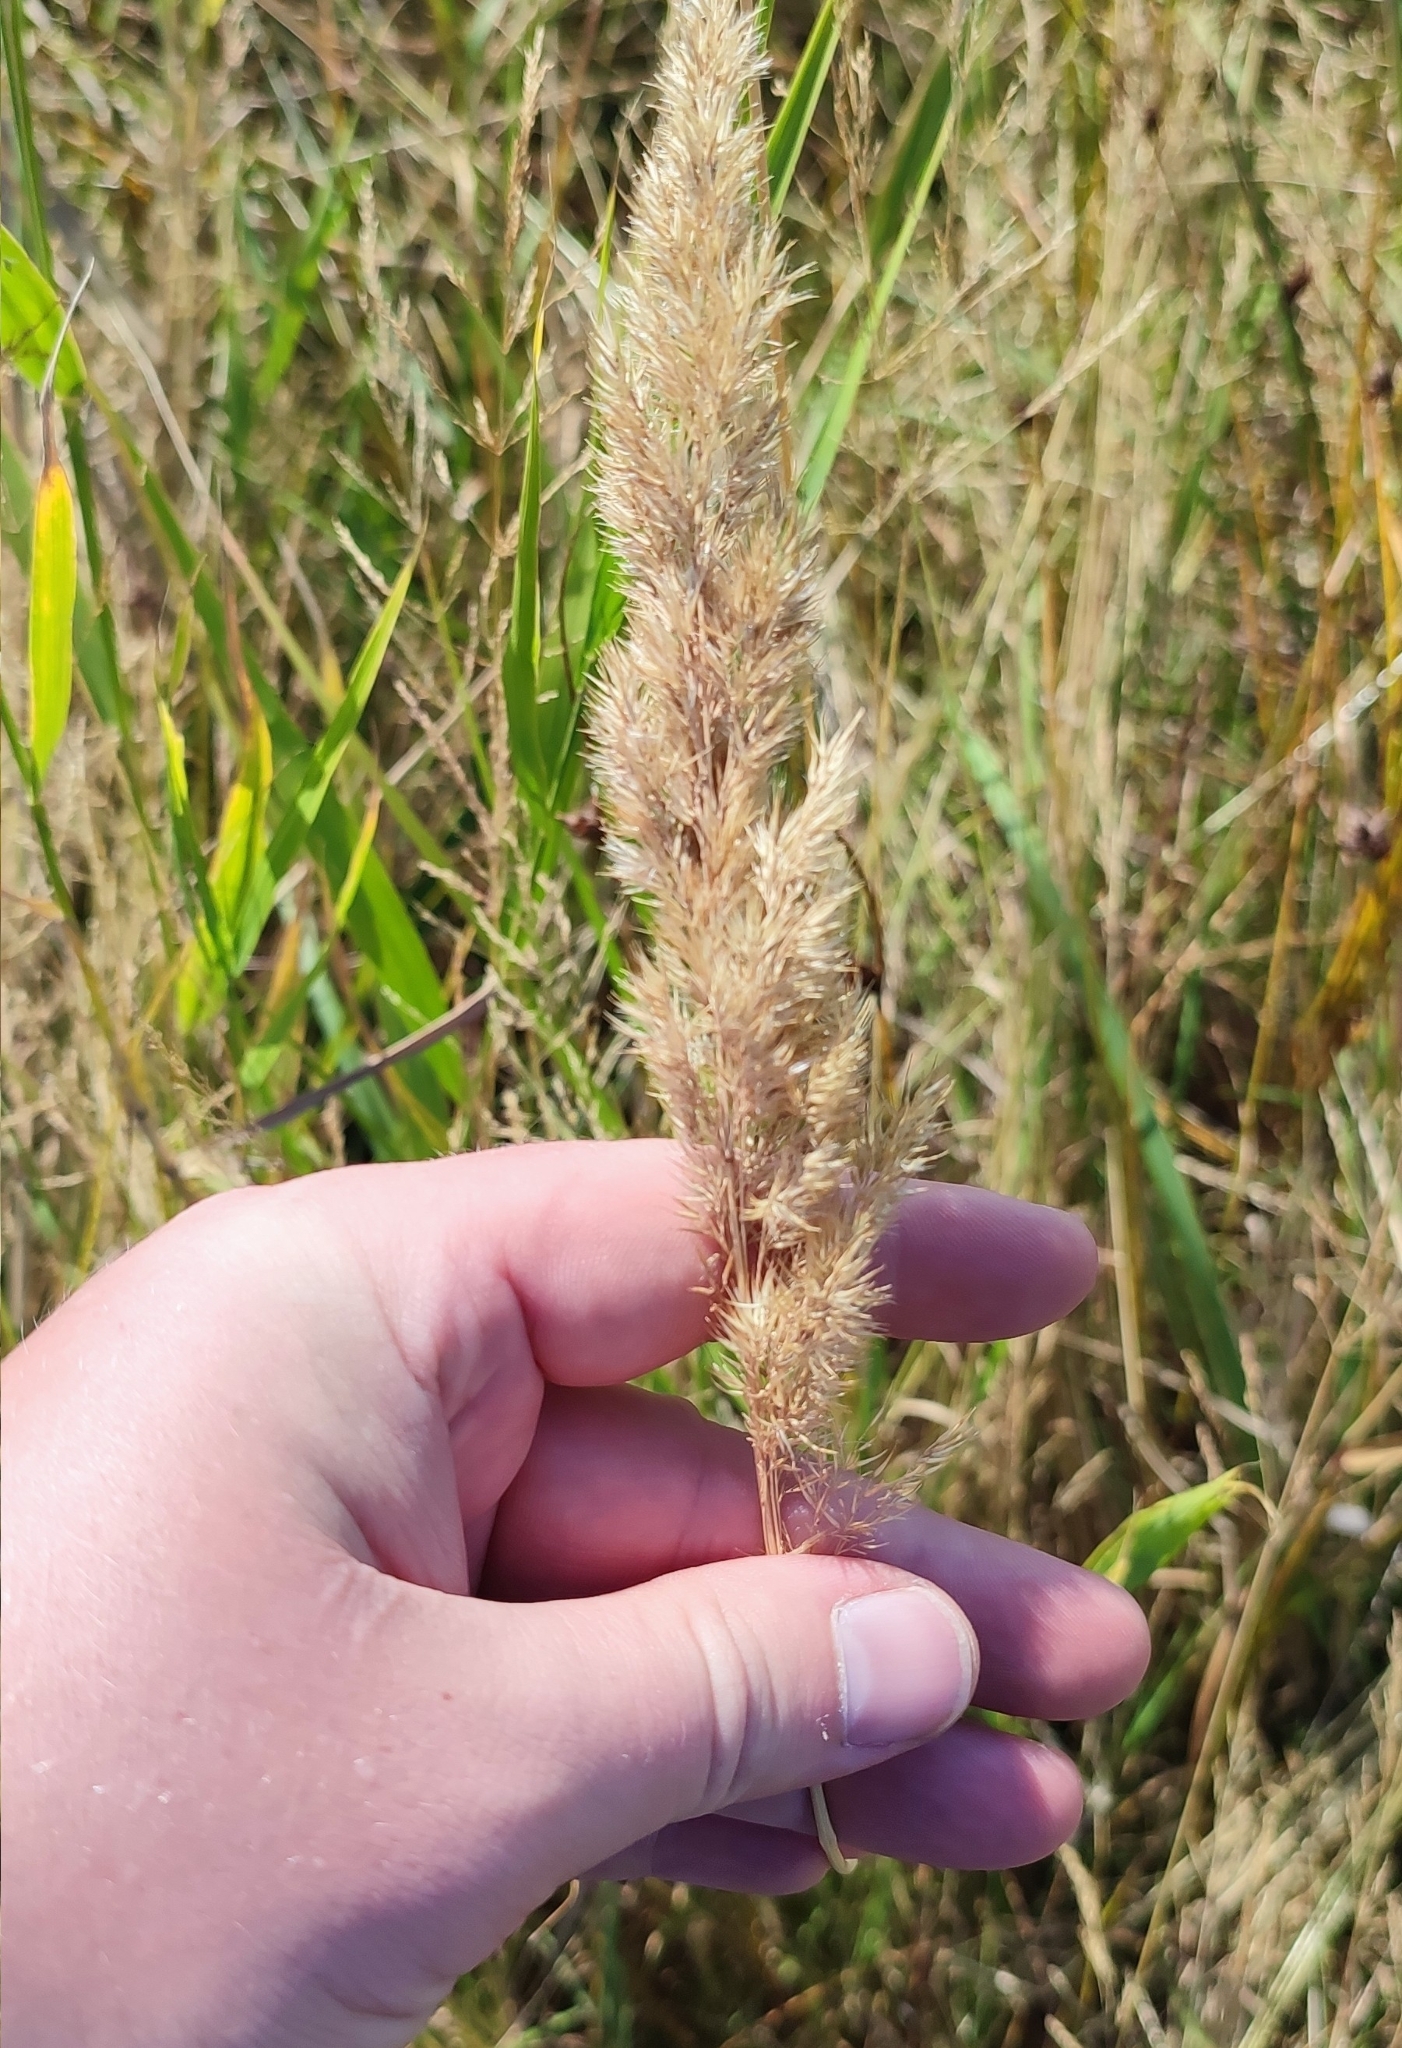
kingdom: Plantae
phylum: Tracheophyta
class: Liliopsida
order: Poales
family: Poaceae
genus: Calamagrostis
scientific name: Calamagrostis epigejos
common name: Wood small-reed
